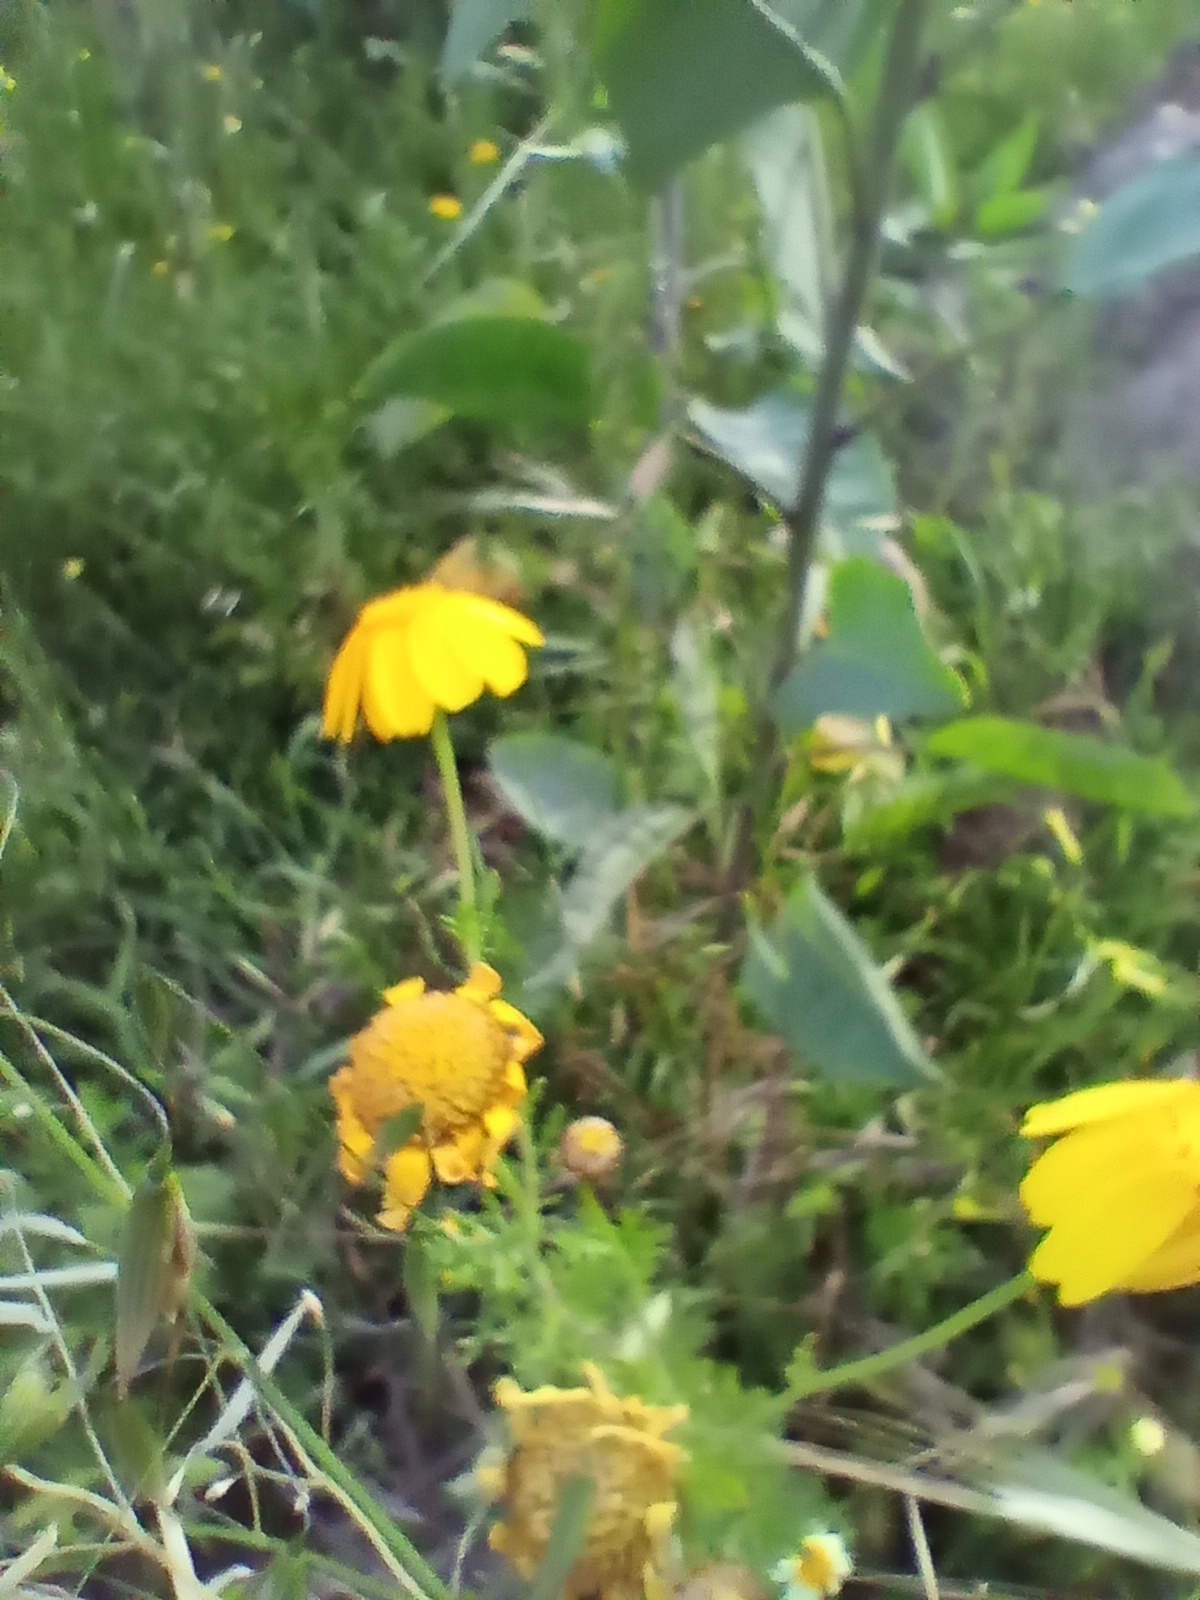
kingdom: Plantae
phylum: Tracheophyta
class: Magnoliopsida
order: Asterales
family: Asteraceae
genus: Glebionis
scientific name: Glebionis coronaria
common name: Crowndaisy
